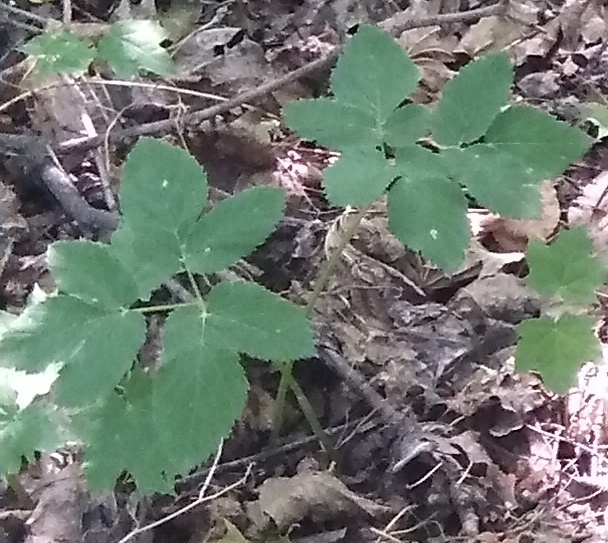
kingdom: Plantae
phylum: Tracheophyta
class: Magnoliopsida
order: Apiales
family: Apiaceae
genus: Aegopodium
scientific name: Aegopodium podagraria
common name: Ground-elder
